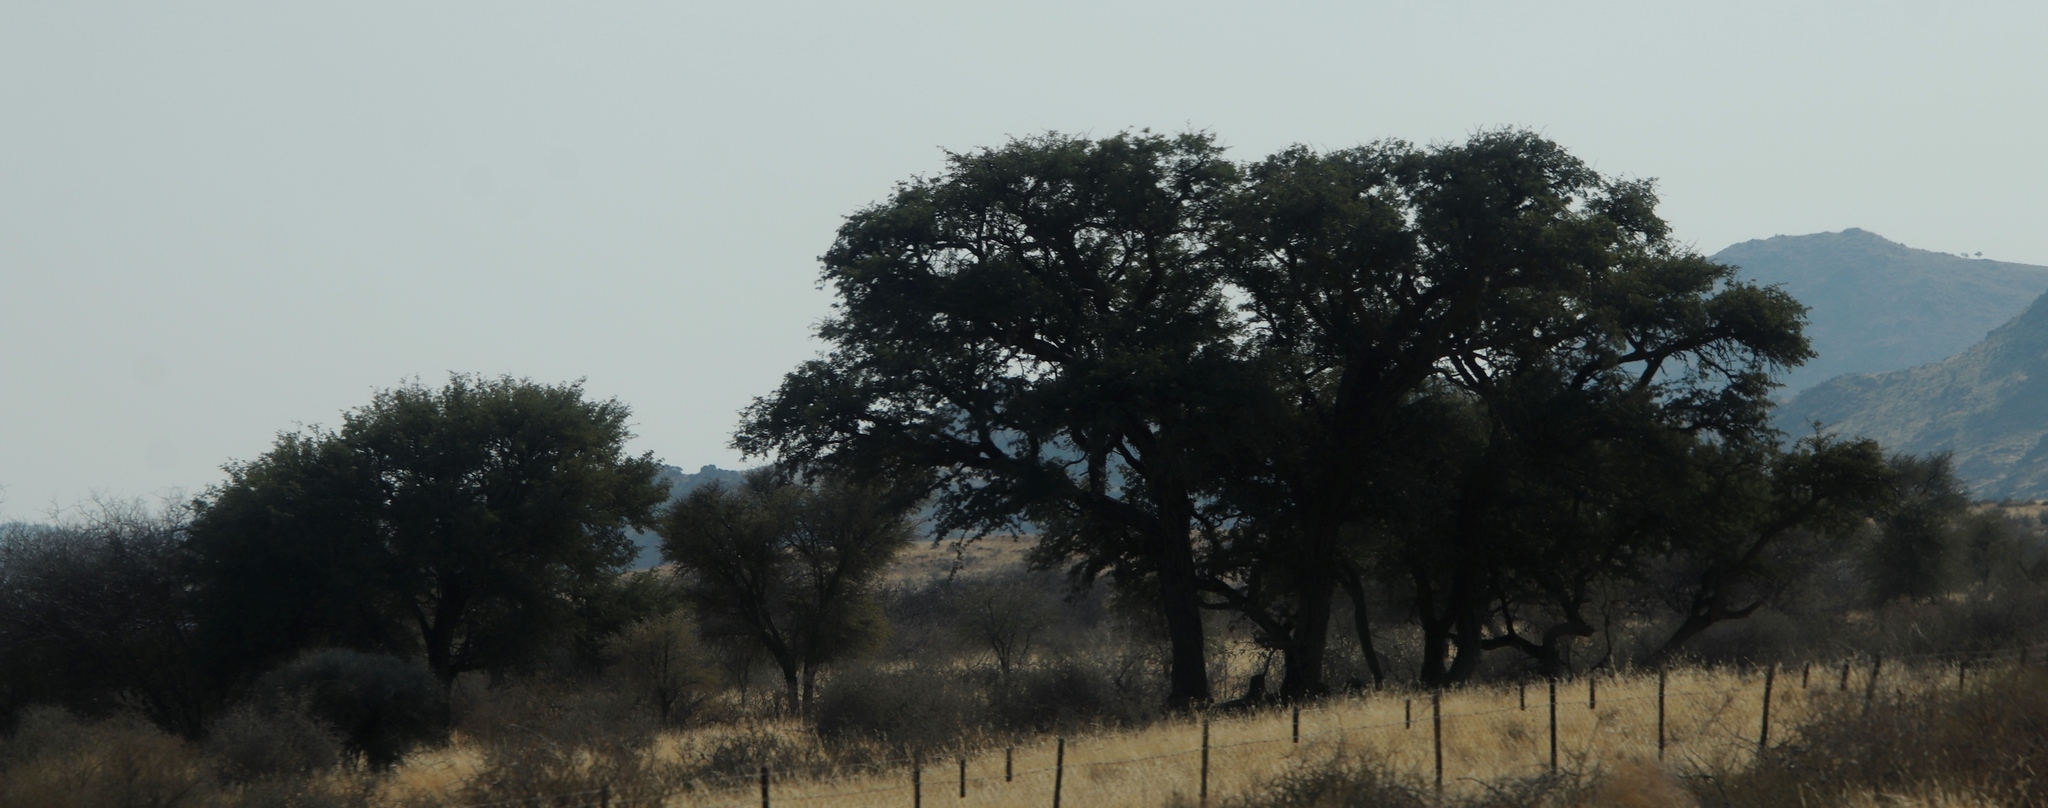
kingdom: Plantae
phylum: Tracheophyta
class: Magnoliopsida
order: Fabales
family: Fabaceae
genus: Vachellia
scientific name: Vachellia erioloba
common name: Camel thorn
